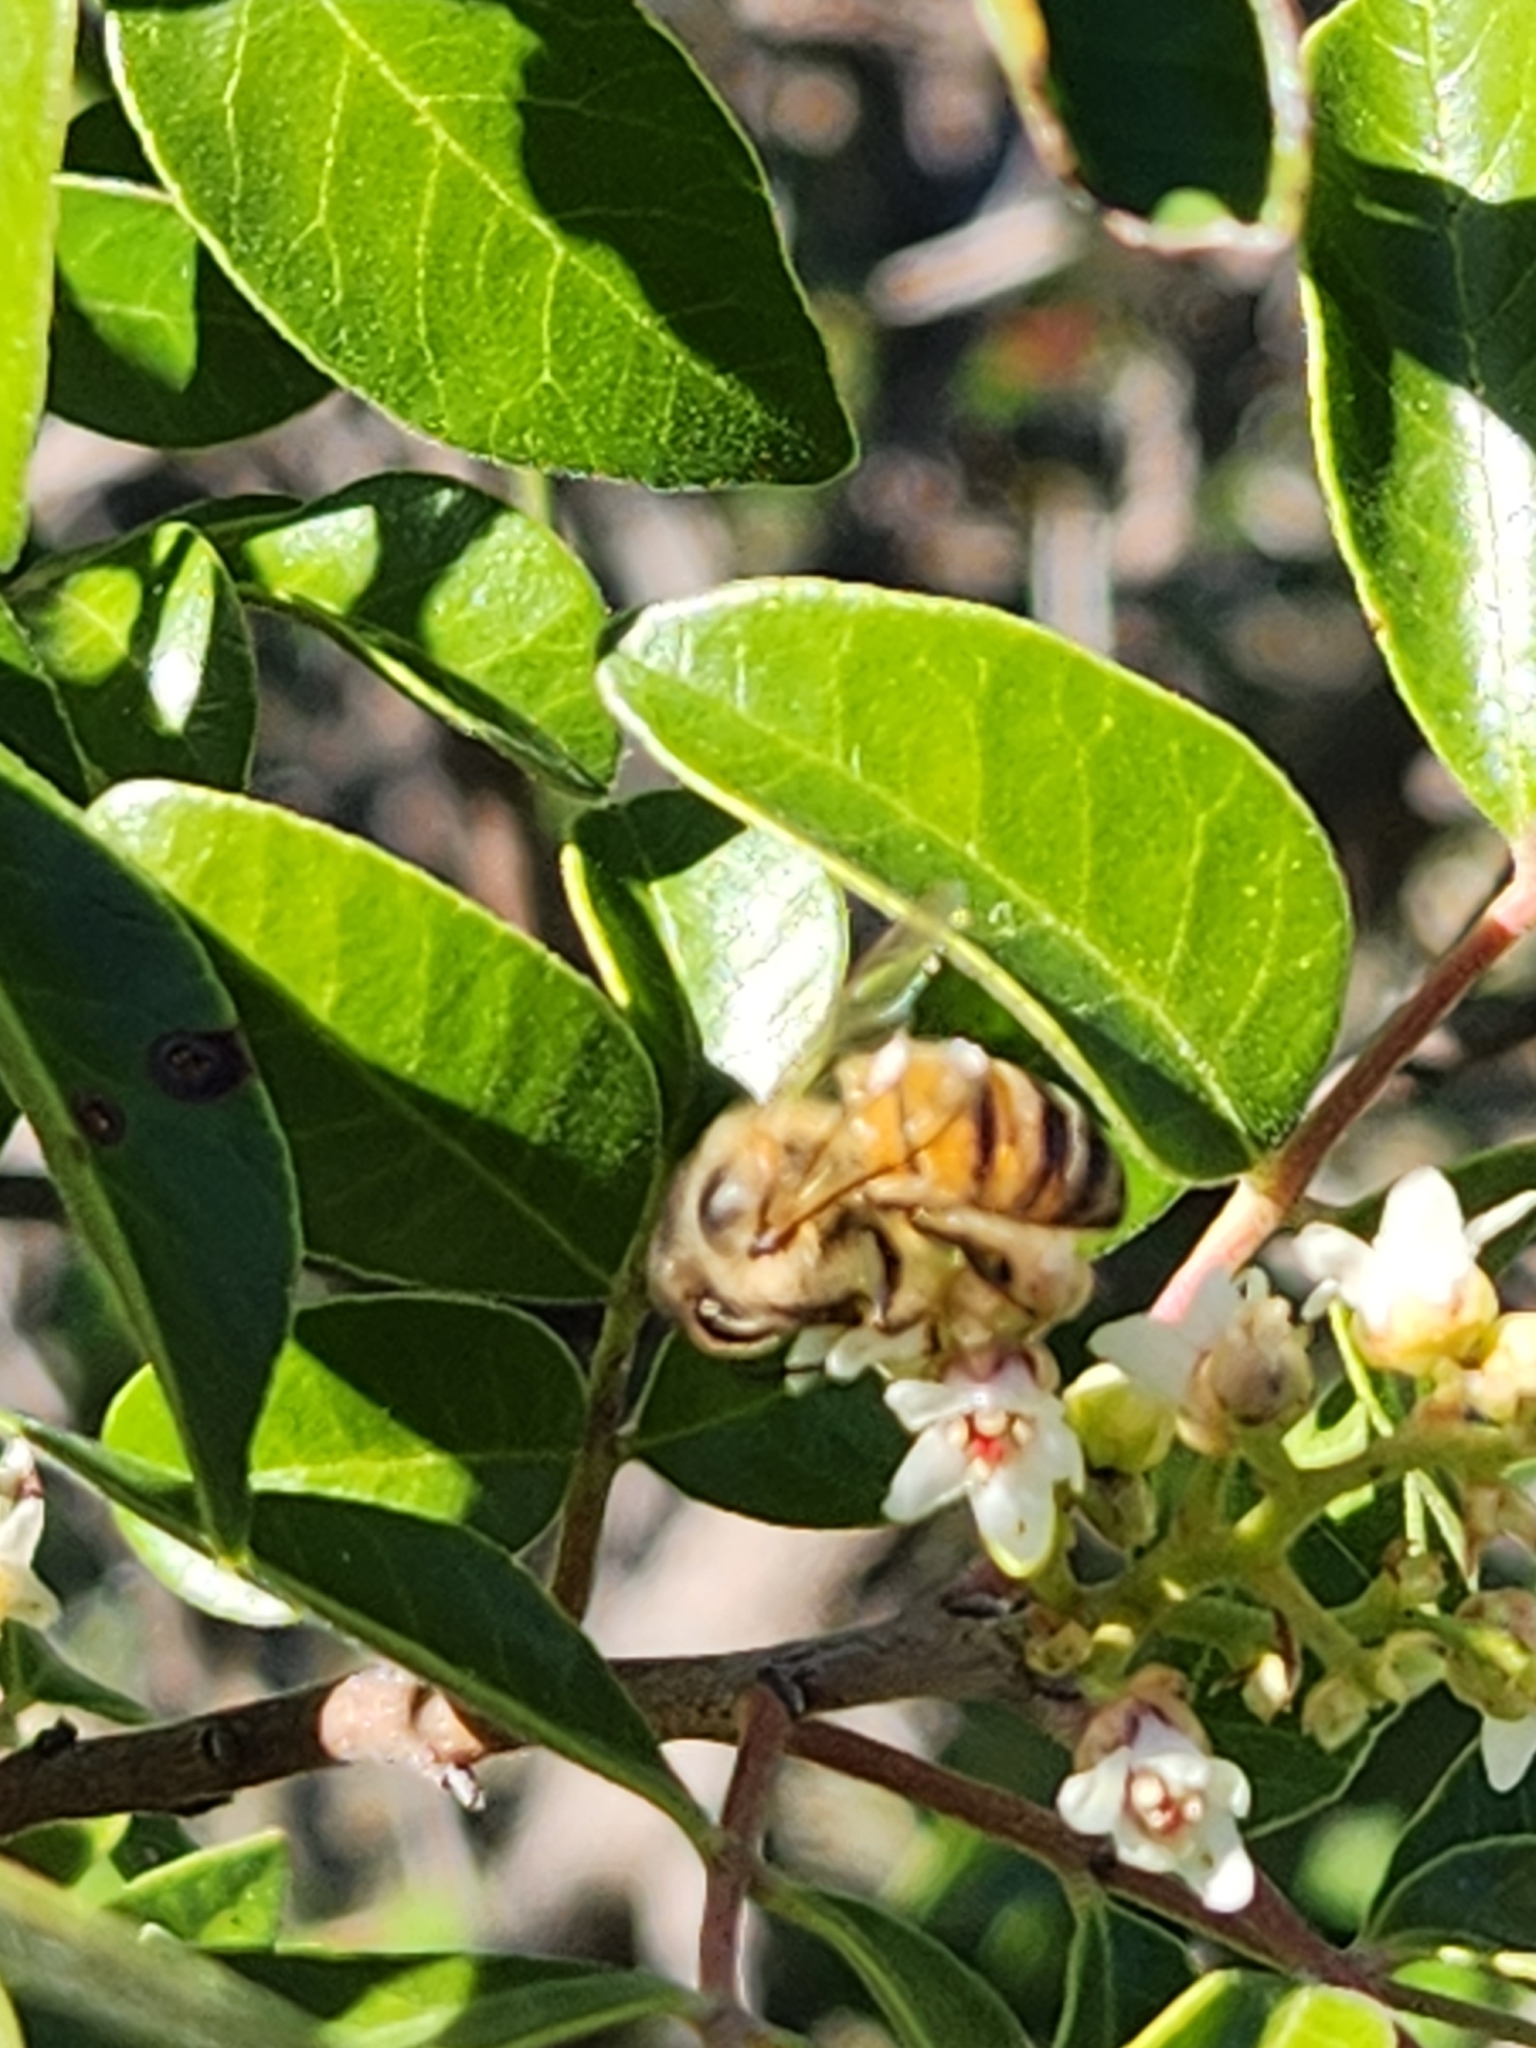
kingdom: Animalia
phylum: Arthropoda
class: Insecta
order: Hymenoptera
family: Apidae
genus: Apis
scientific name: Apis mellifera
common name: Honey bee
